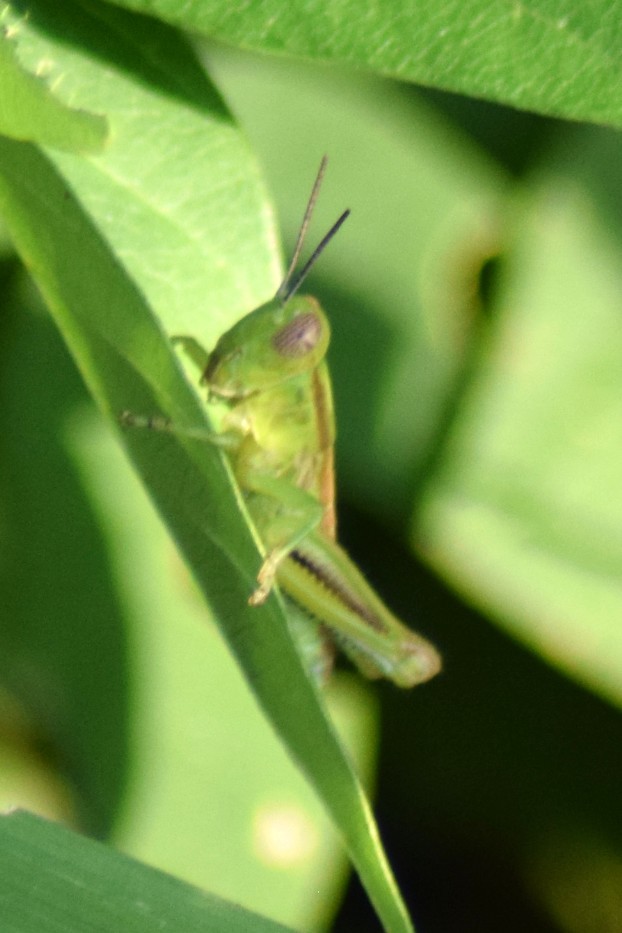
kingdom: Animalia
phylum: Arthropoda
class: Insecta
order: Orthoptera
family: Acrididae
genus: Melanoplus
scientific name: Melanoplus
